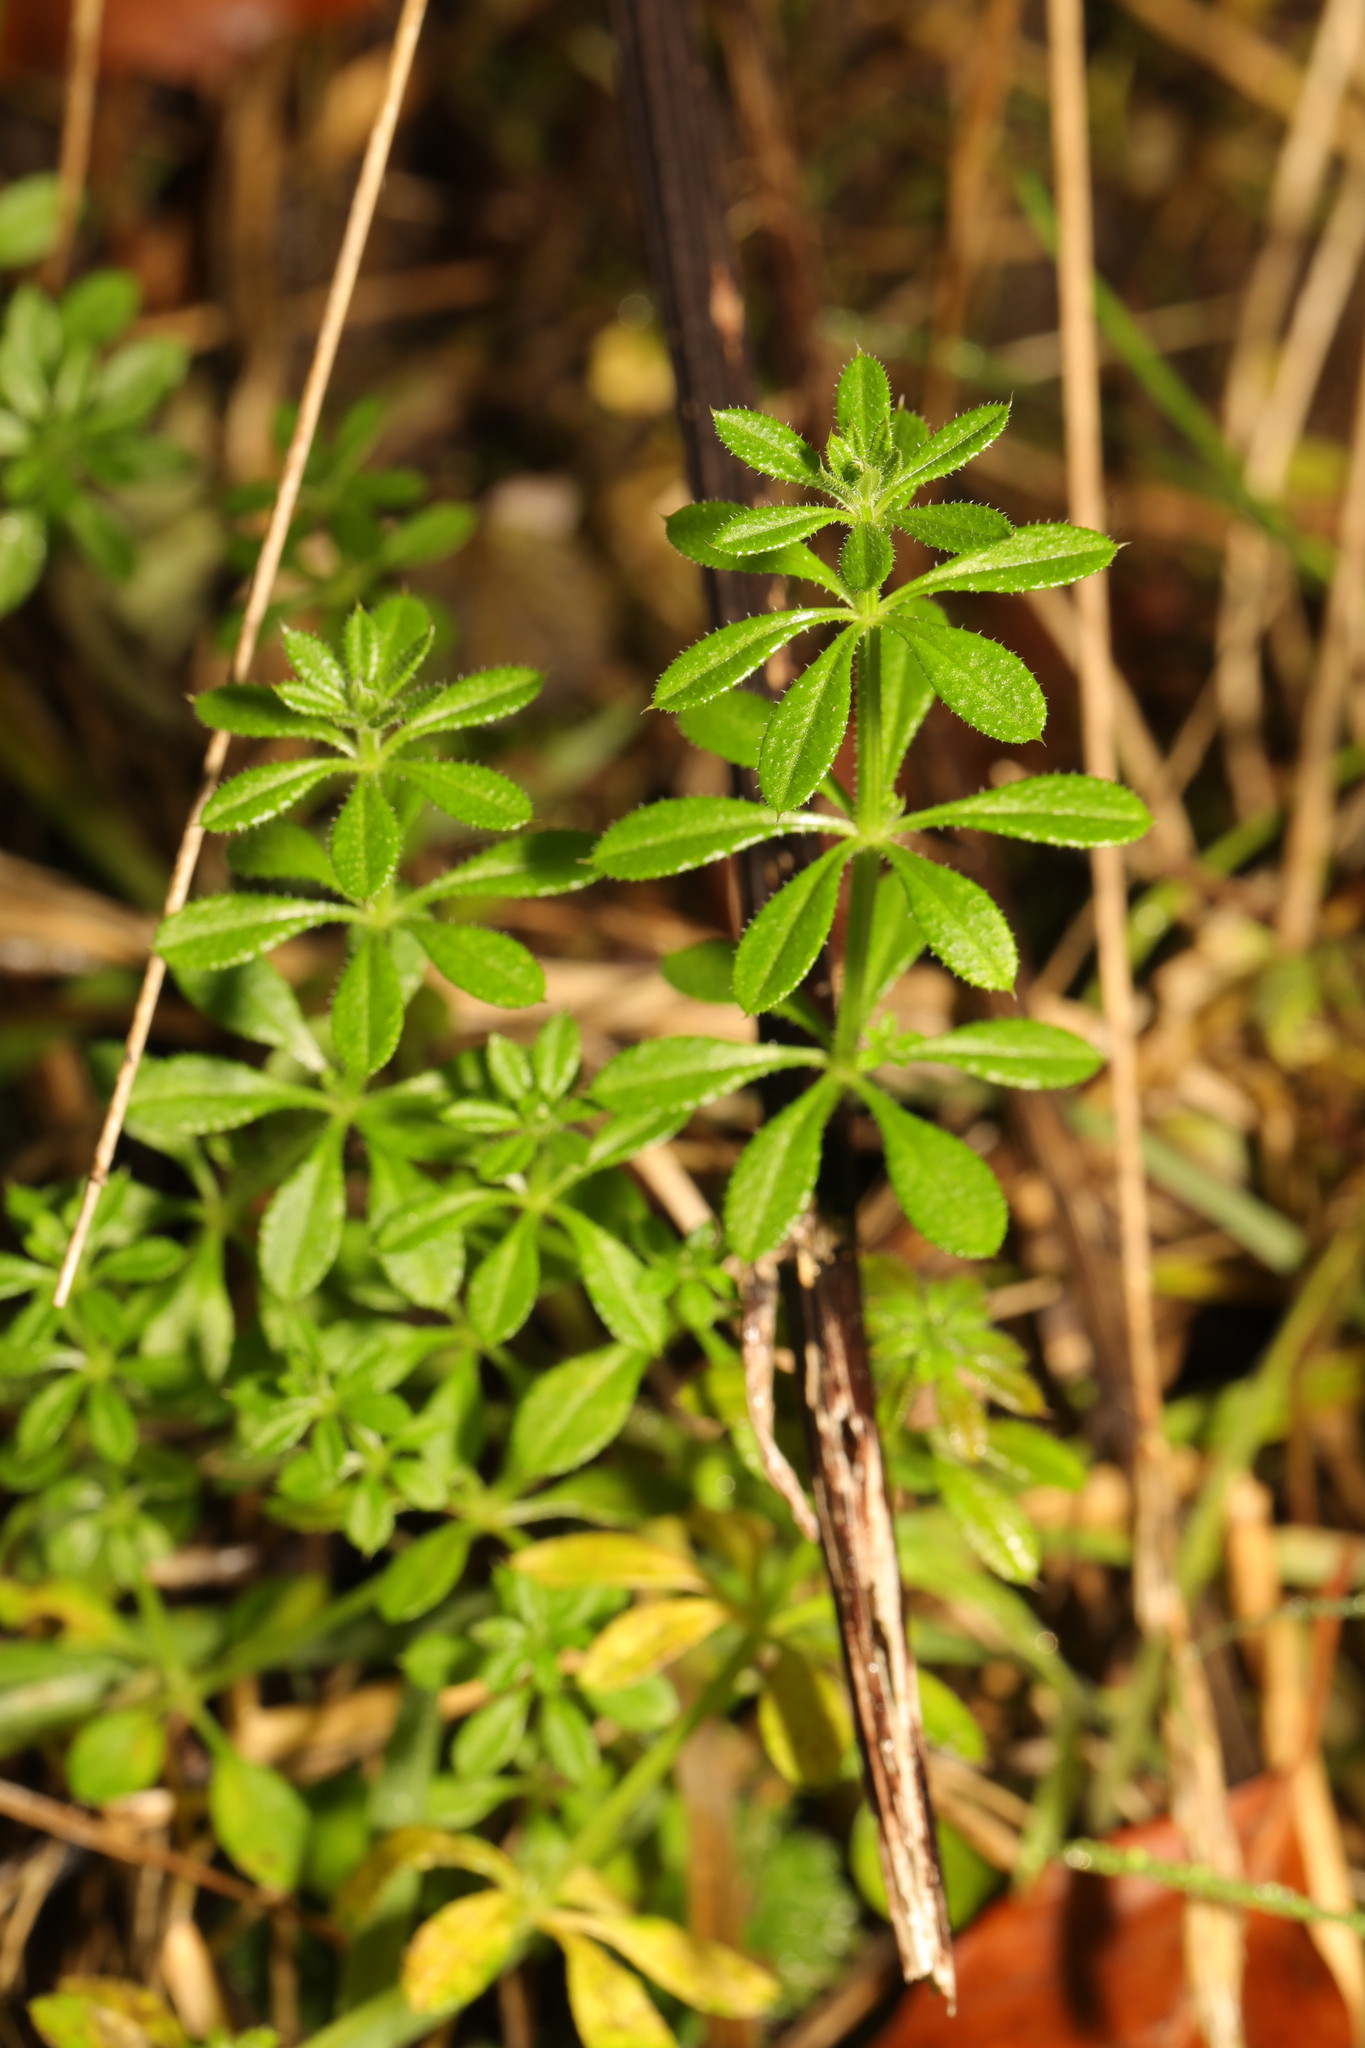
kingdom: Plantae
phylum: Tracheophyta
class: Magnoliopsida
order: Gentianales
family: Rubiaceae
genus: Galium
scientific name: Galium aparine
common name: Cleavers
